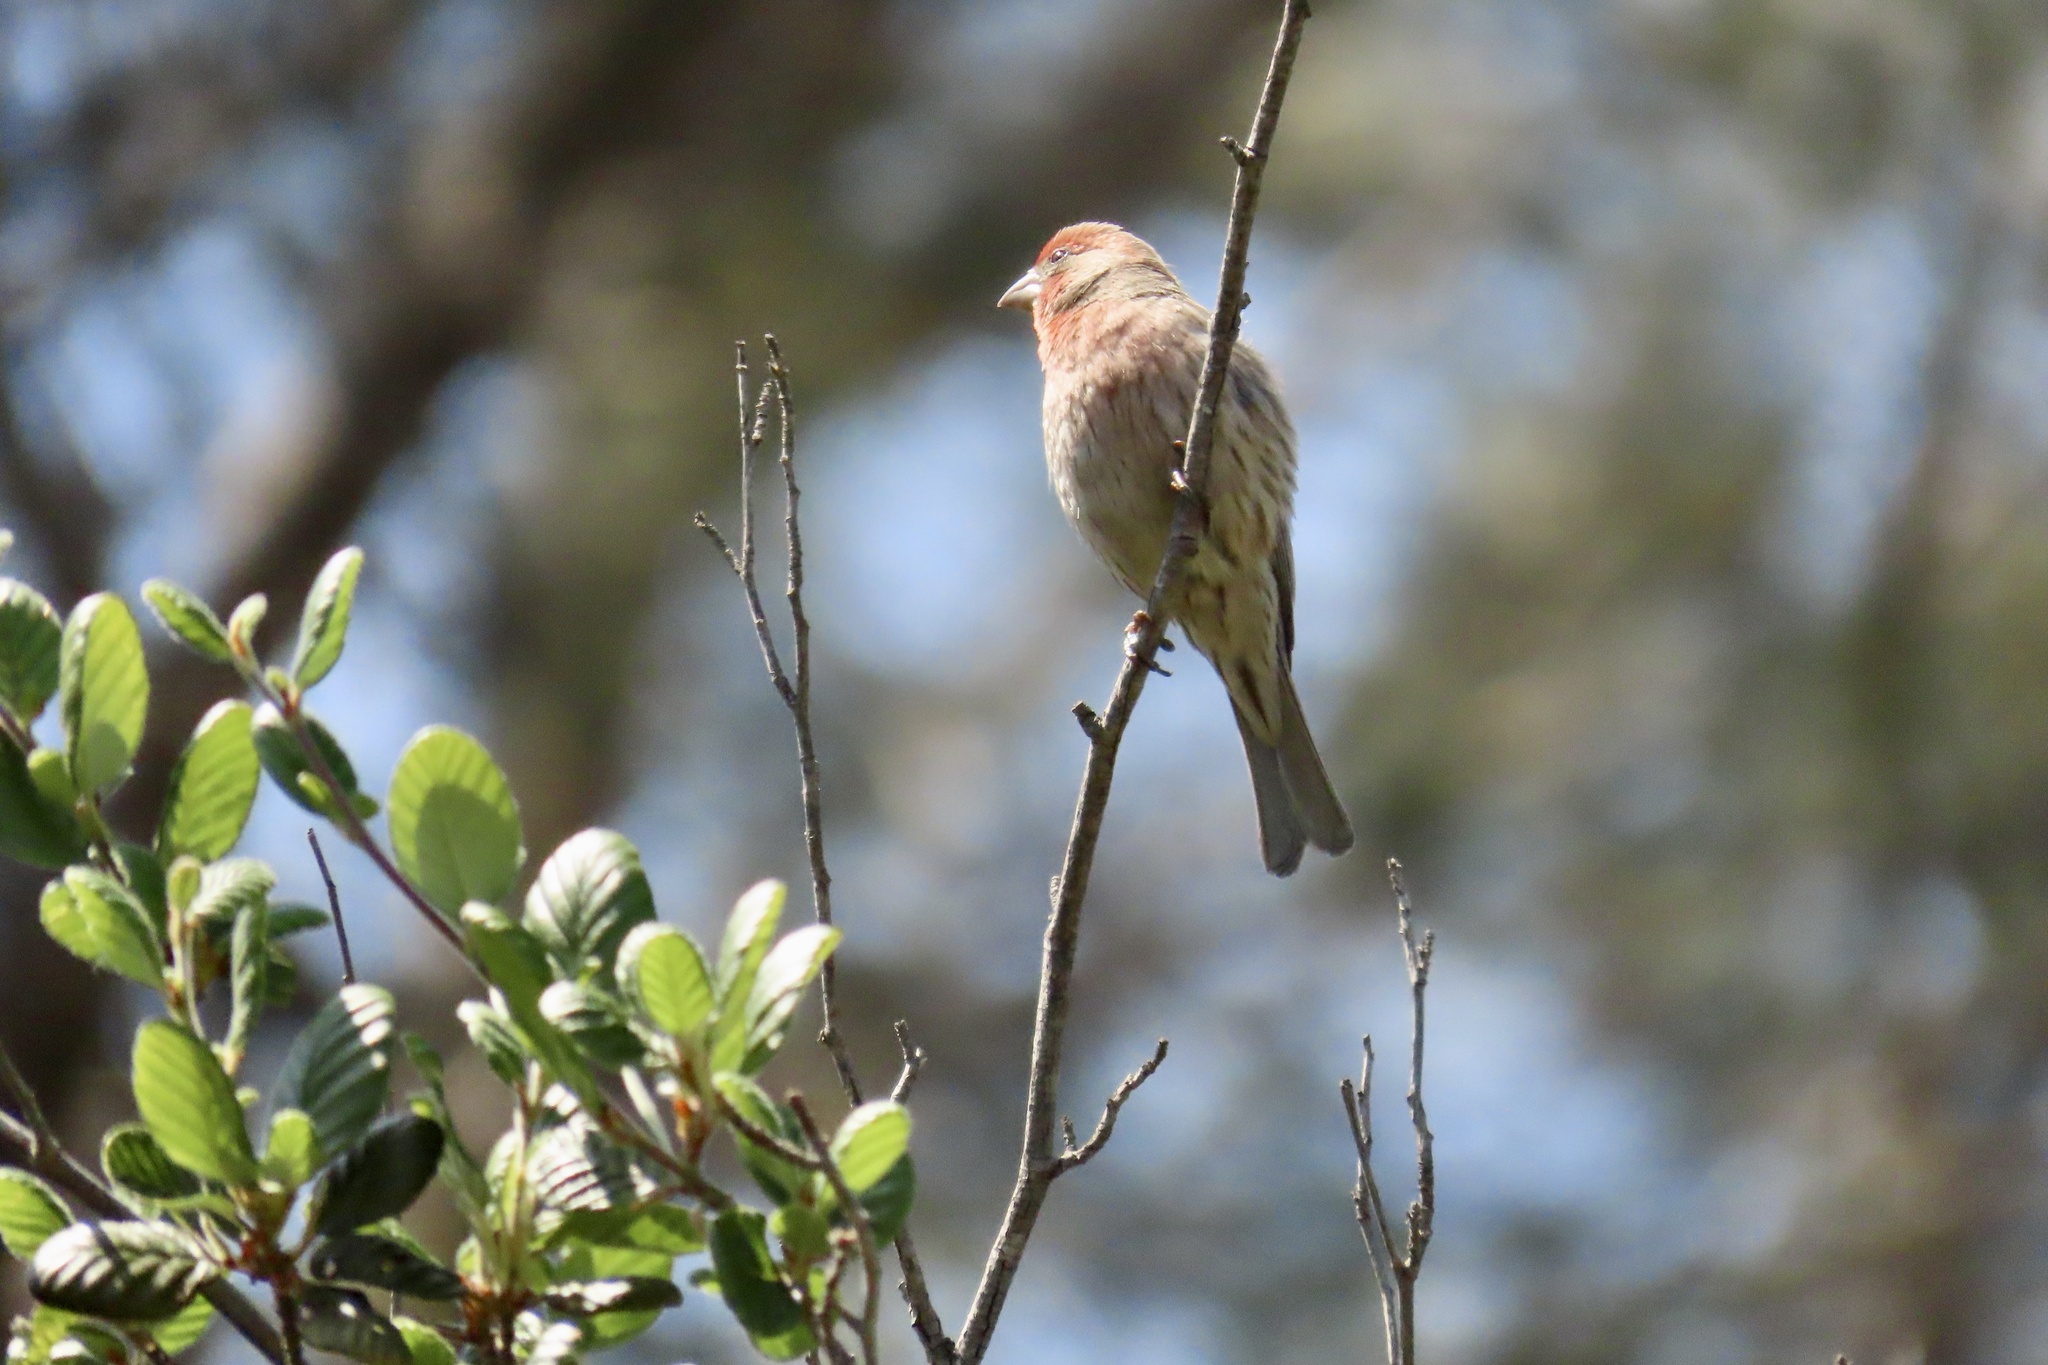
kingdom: Animalia
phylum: Chordata
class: Aves
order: Passeriformes
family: Fringillidae
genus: Haemorhous
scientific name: Haemorhous mexicanus
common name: House finch
